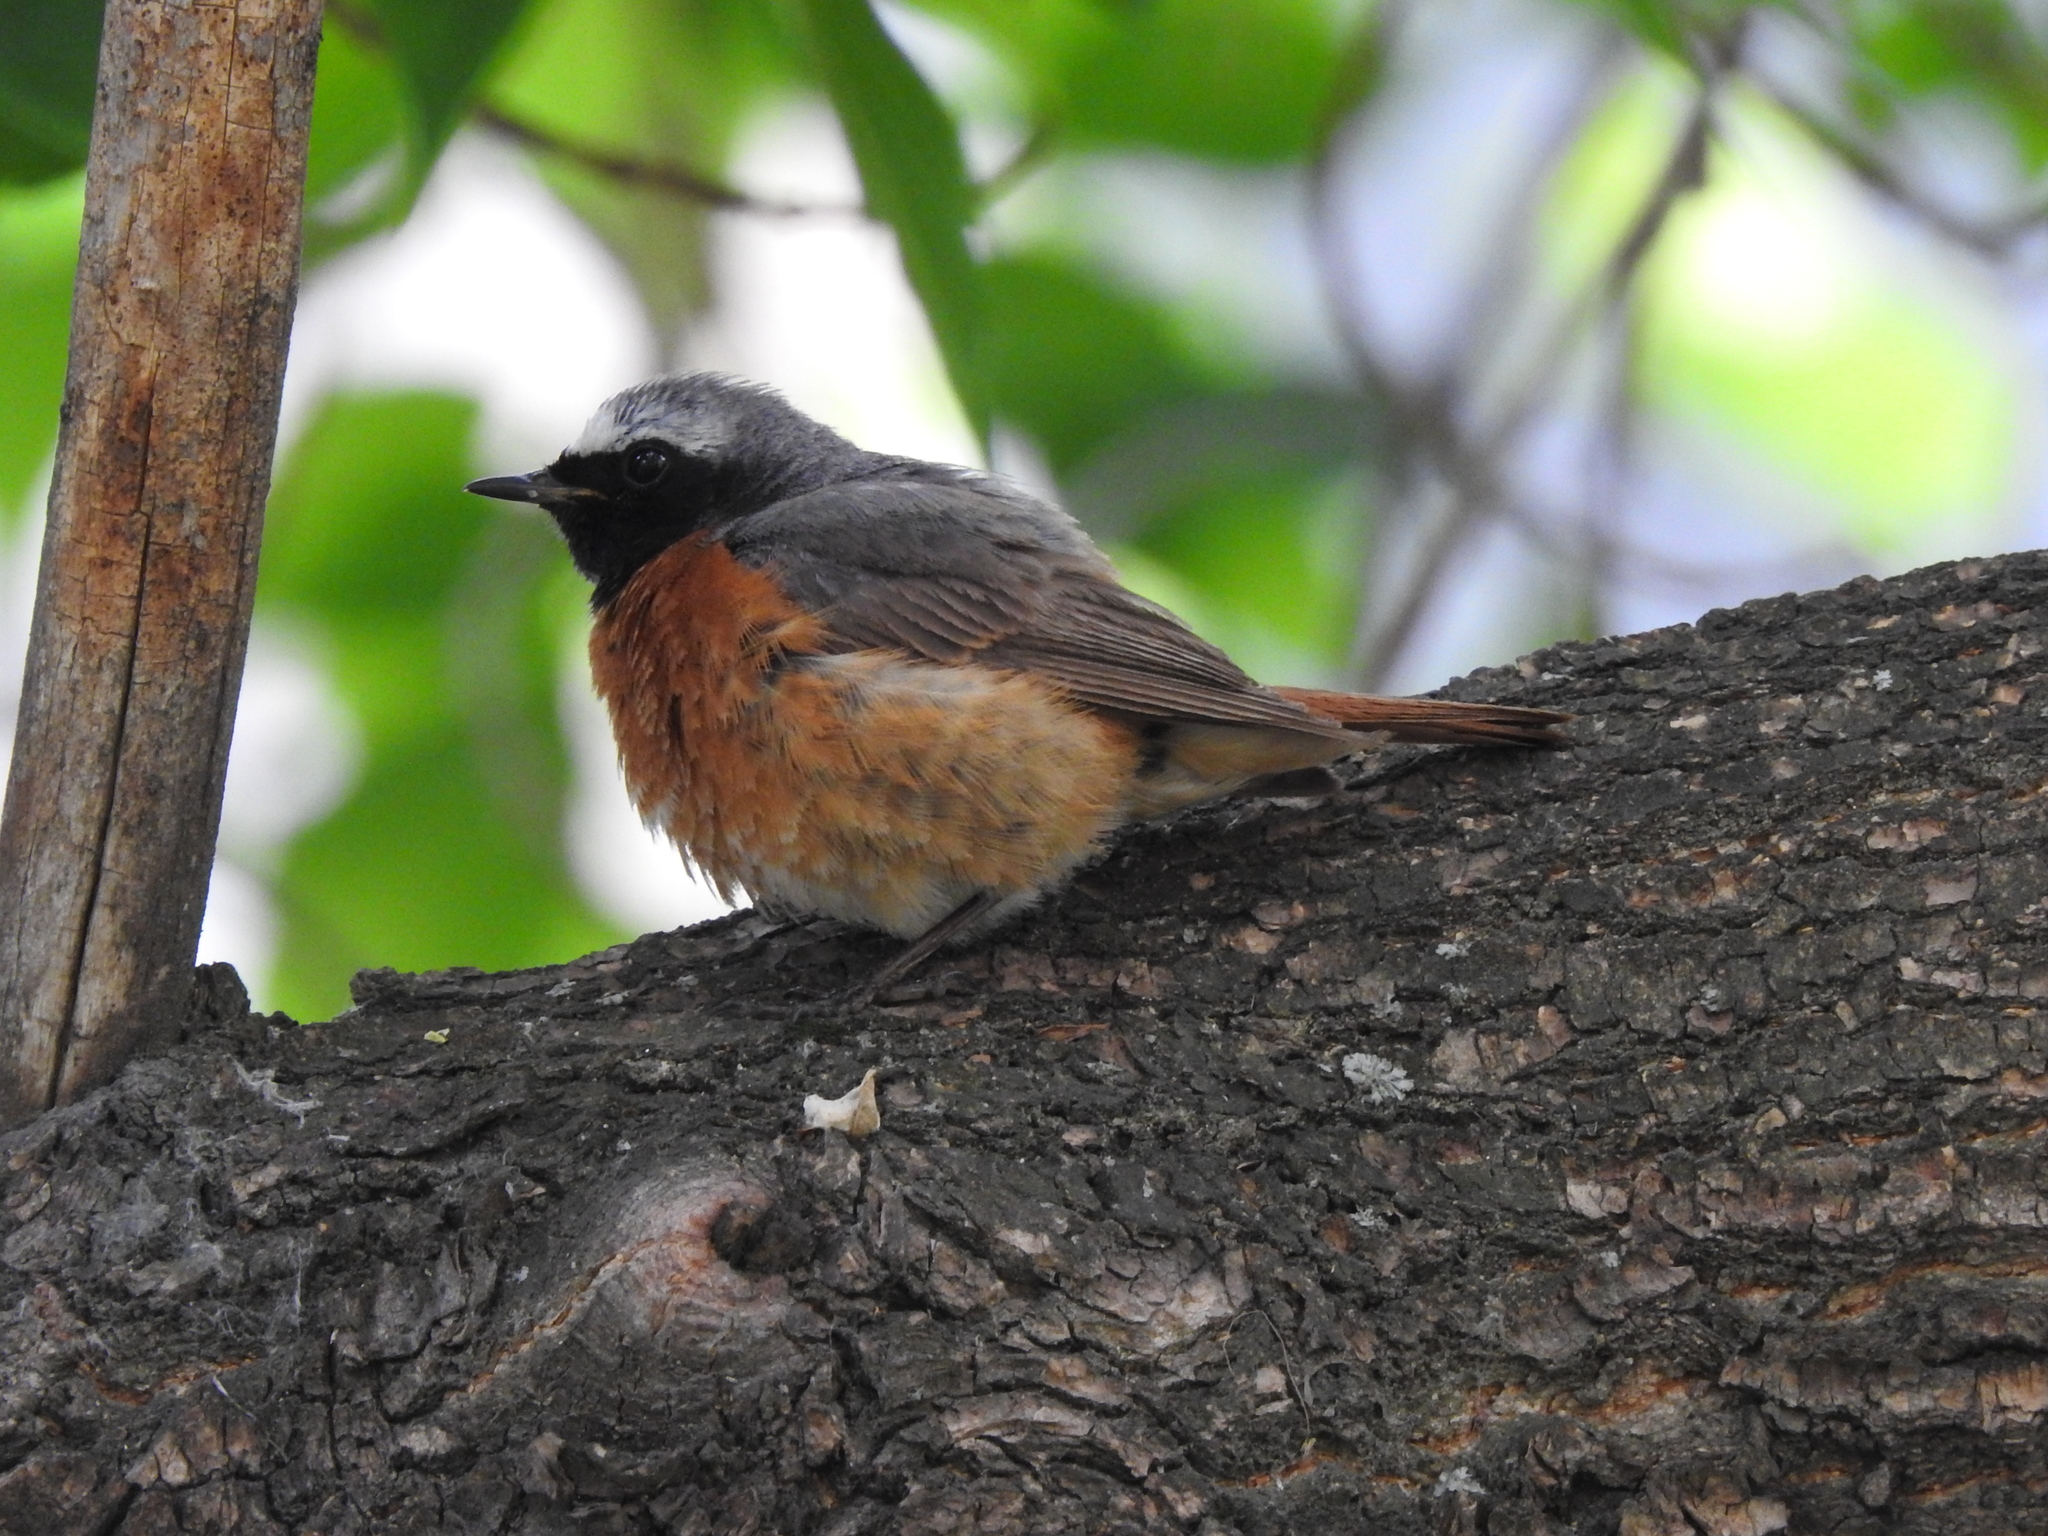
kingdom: Animalia
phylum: Chordata
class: Aves
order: Passeriformes
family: Muscicapidae
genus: Phoenicurus
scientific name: Phoenicurus phoenicurus
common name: Common redstart
